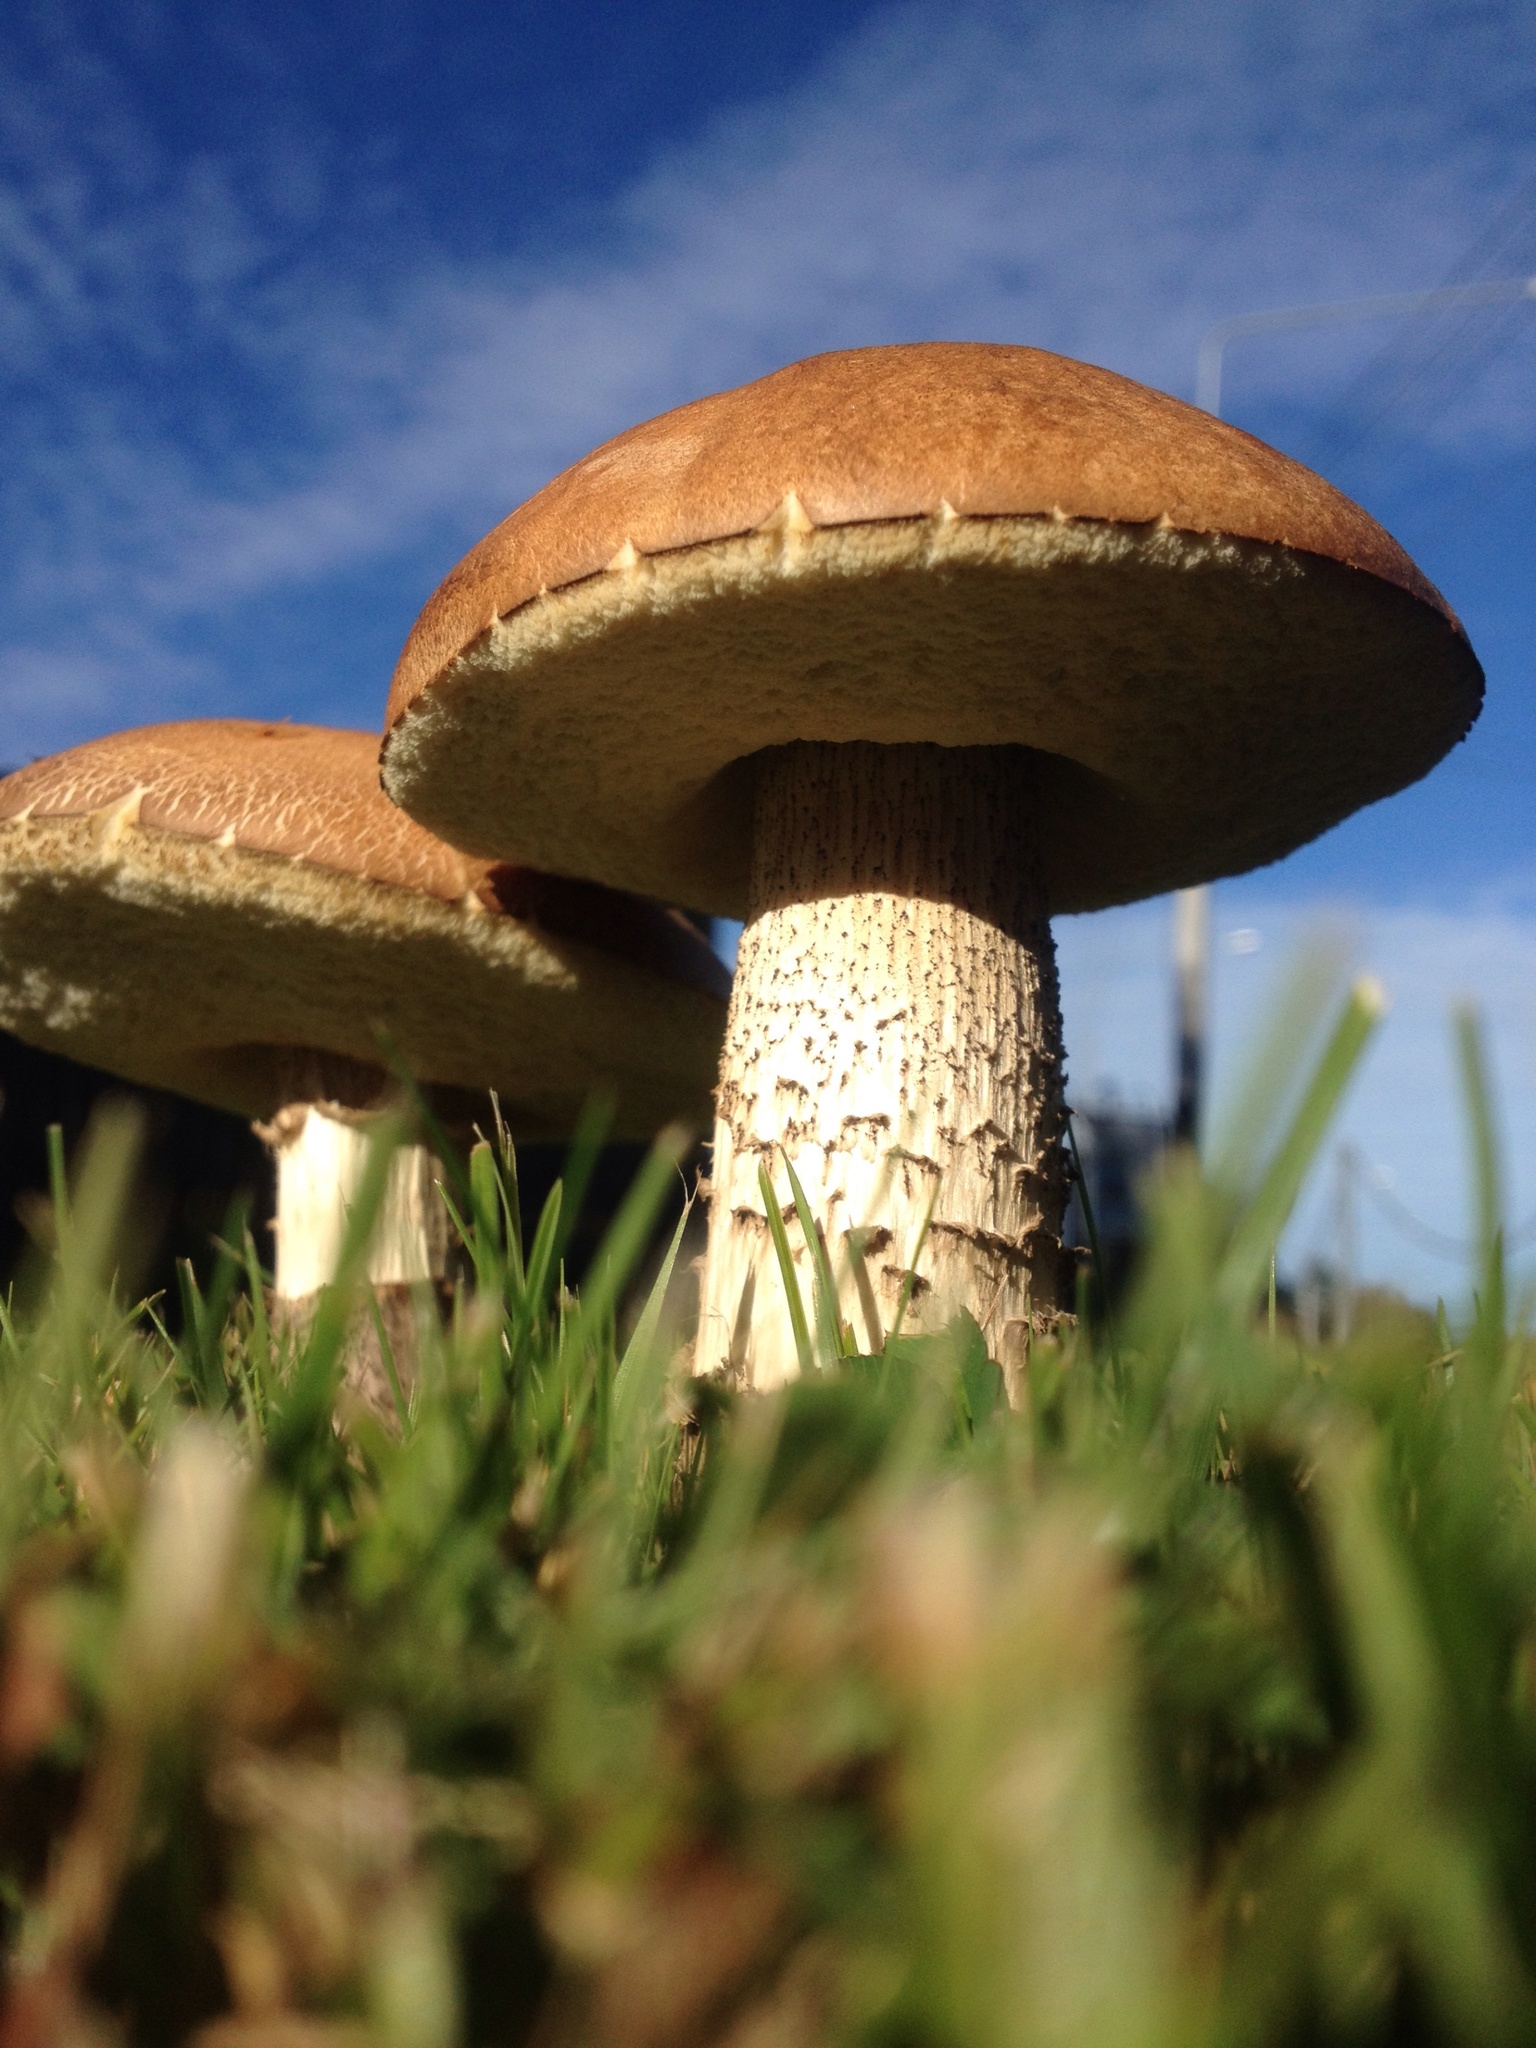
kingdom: Fungi
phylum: Basidiomycota
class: Agaricomycetes
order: Boletales
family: Boletaceae
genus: Leccinum
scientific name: Leccinum scabrum
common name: Blushing bolete
